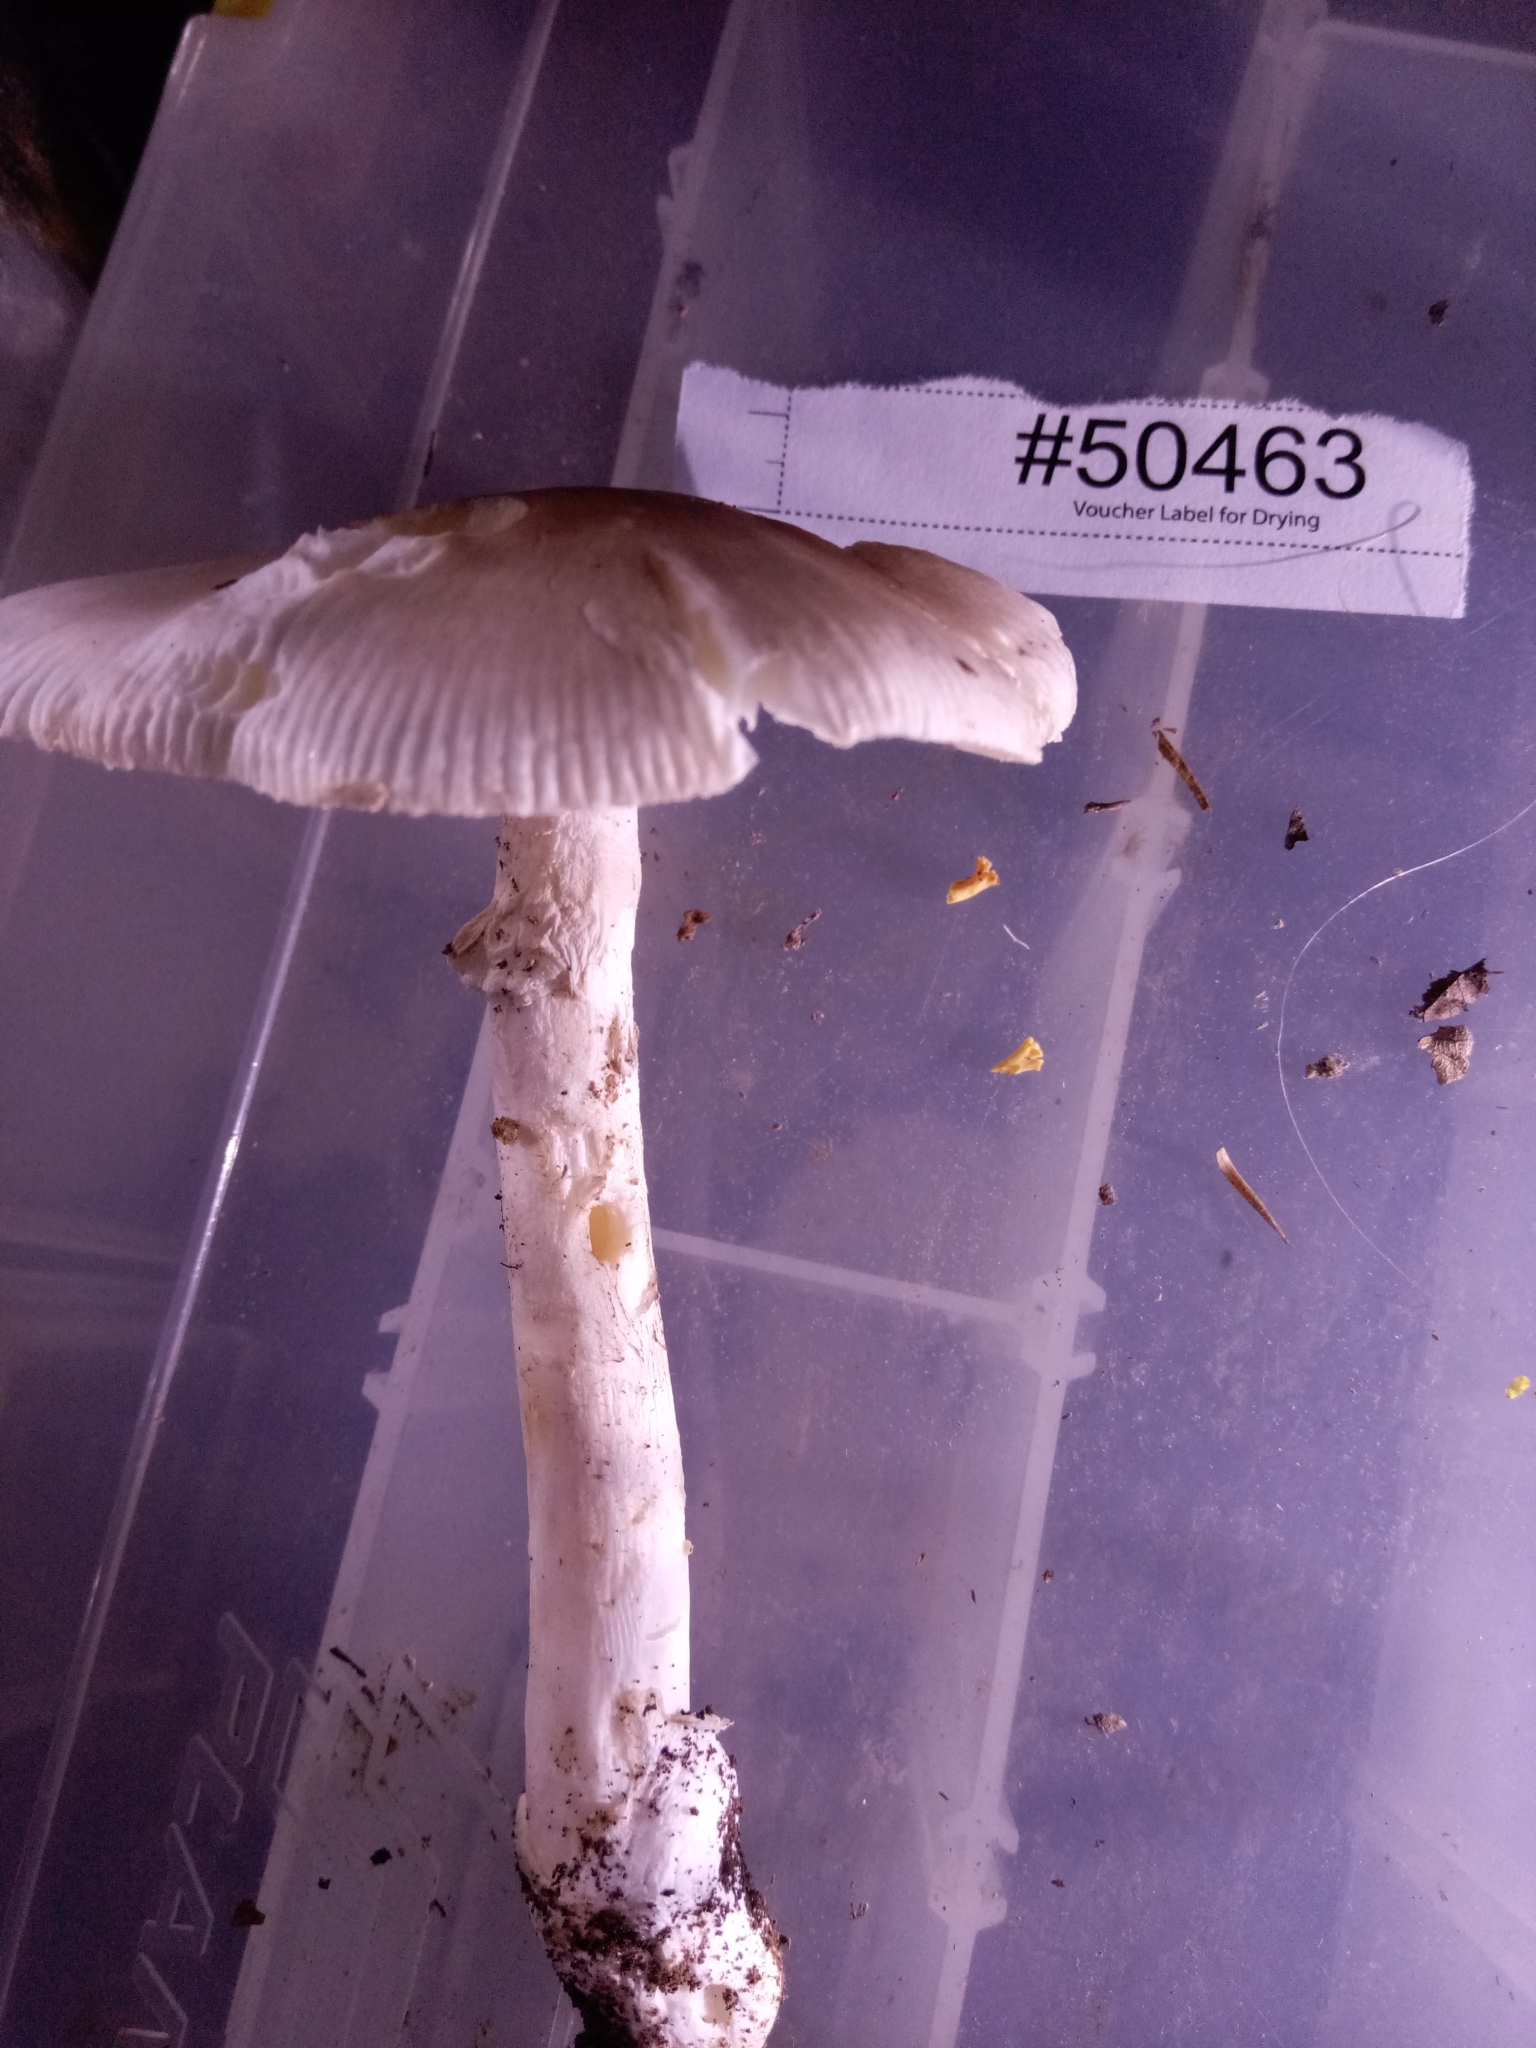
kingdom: Fungi
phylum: Basidiomycota
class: Agaricomycetes
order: Agaricales
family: Amanitaceae
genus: Amanita
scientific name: Amanita spreta
